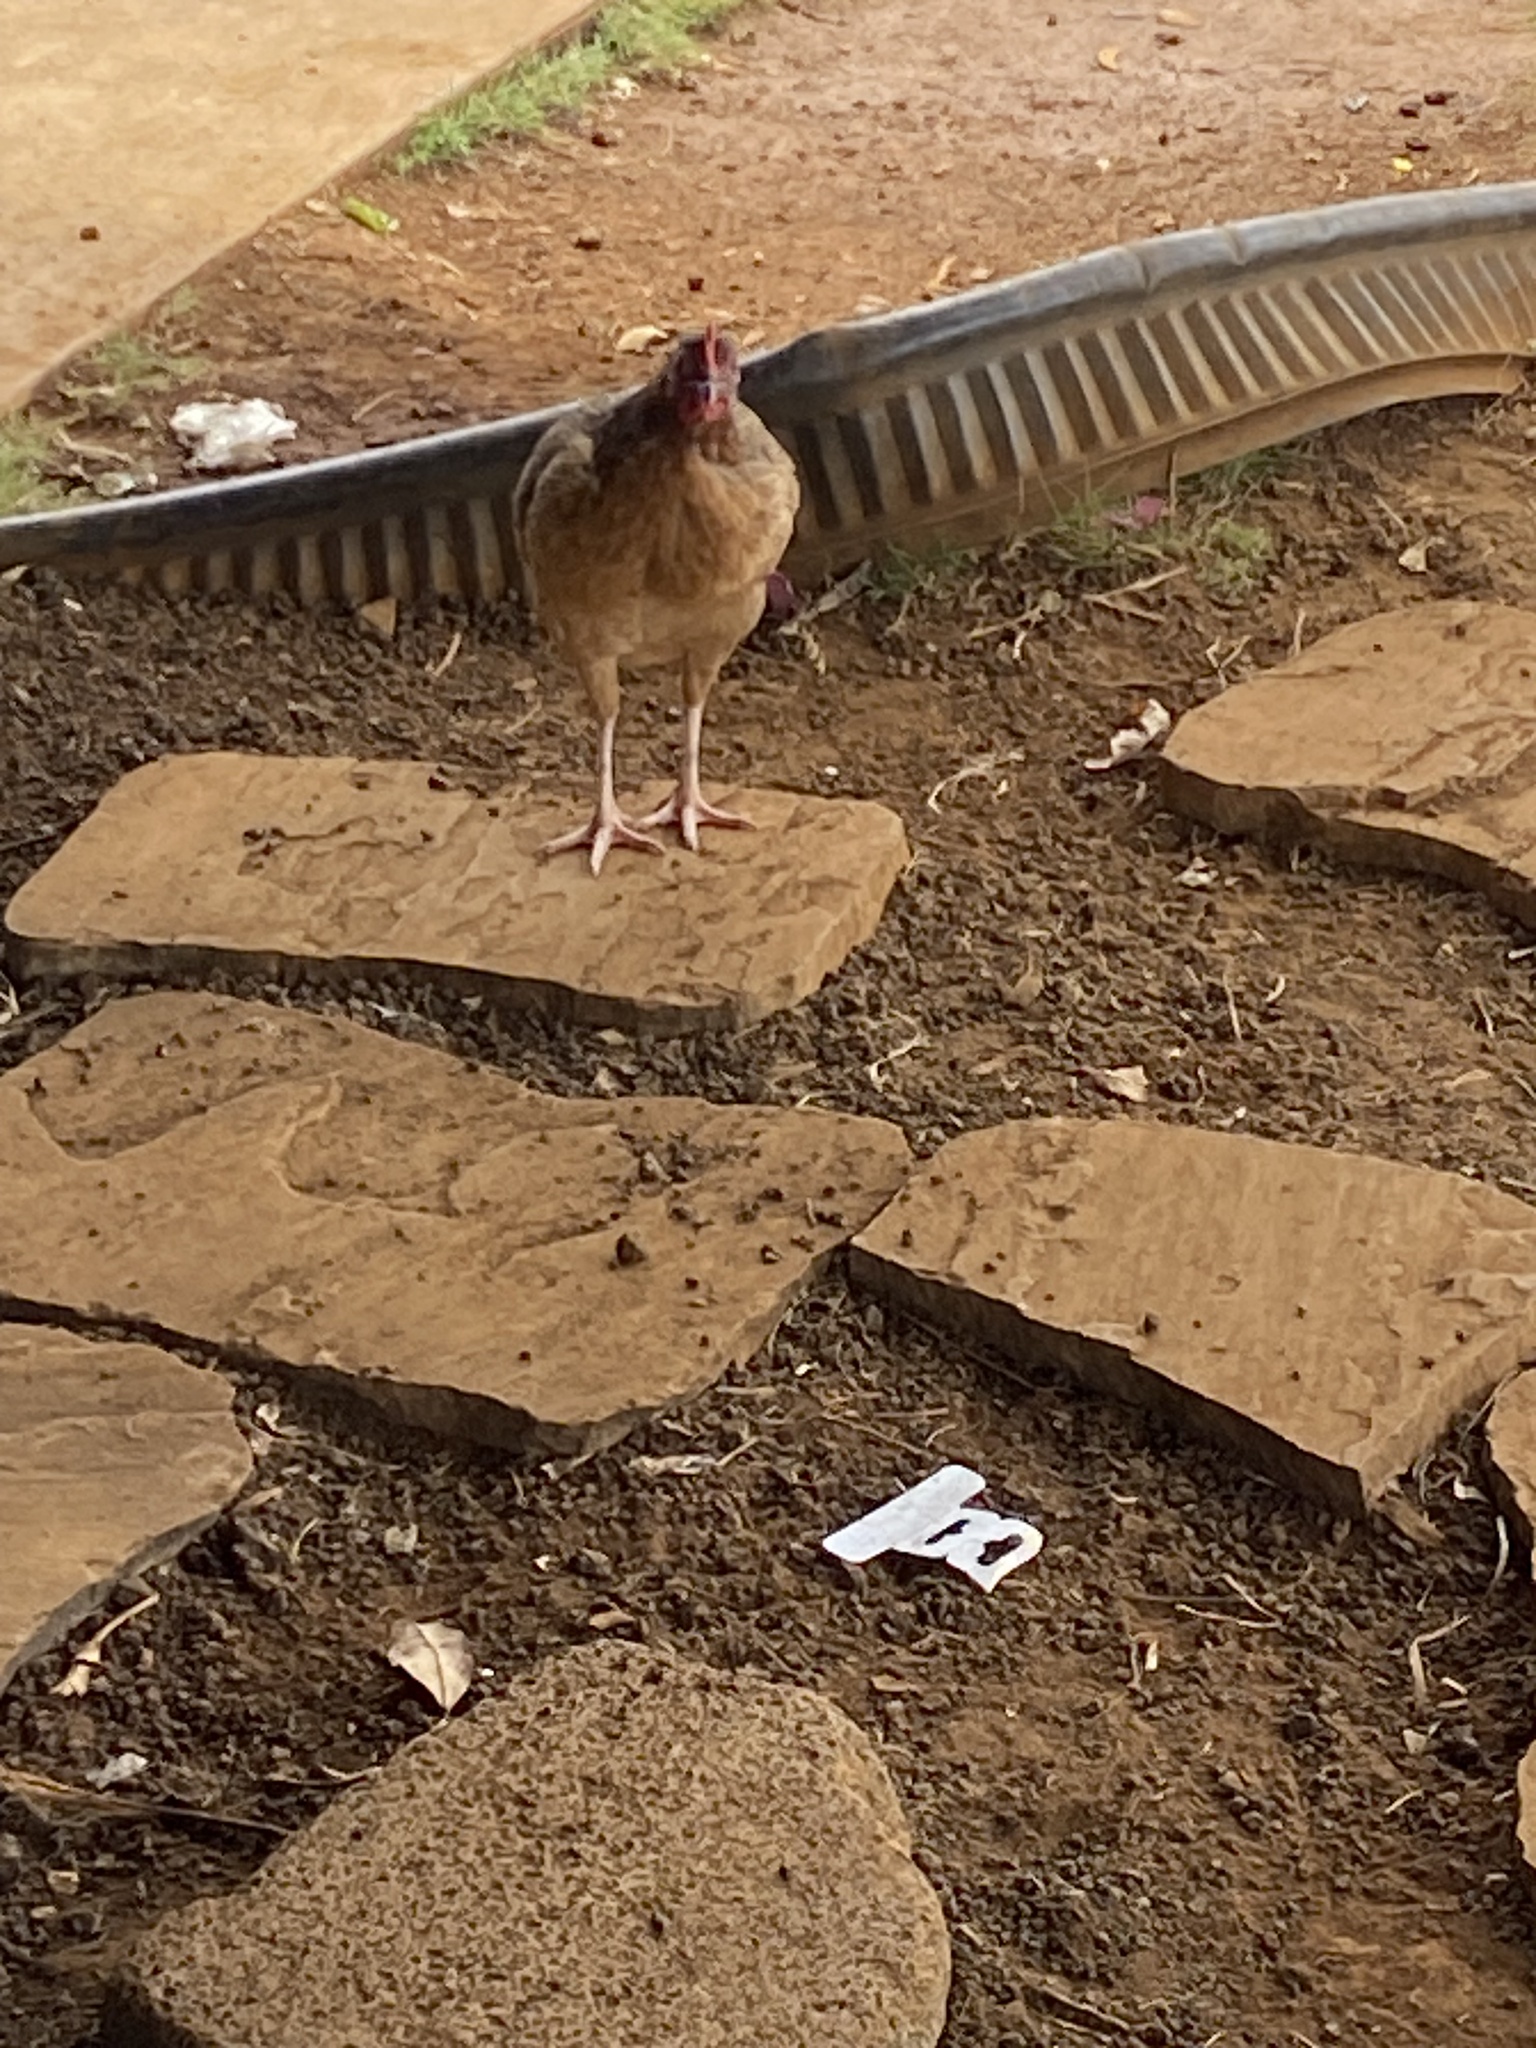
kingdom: Animalia
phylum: Chordata
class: Aves
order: Galliformes
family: Phasianidae
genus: Gallus
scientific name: Gallus gallus
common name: Red junglefowl
